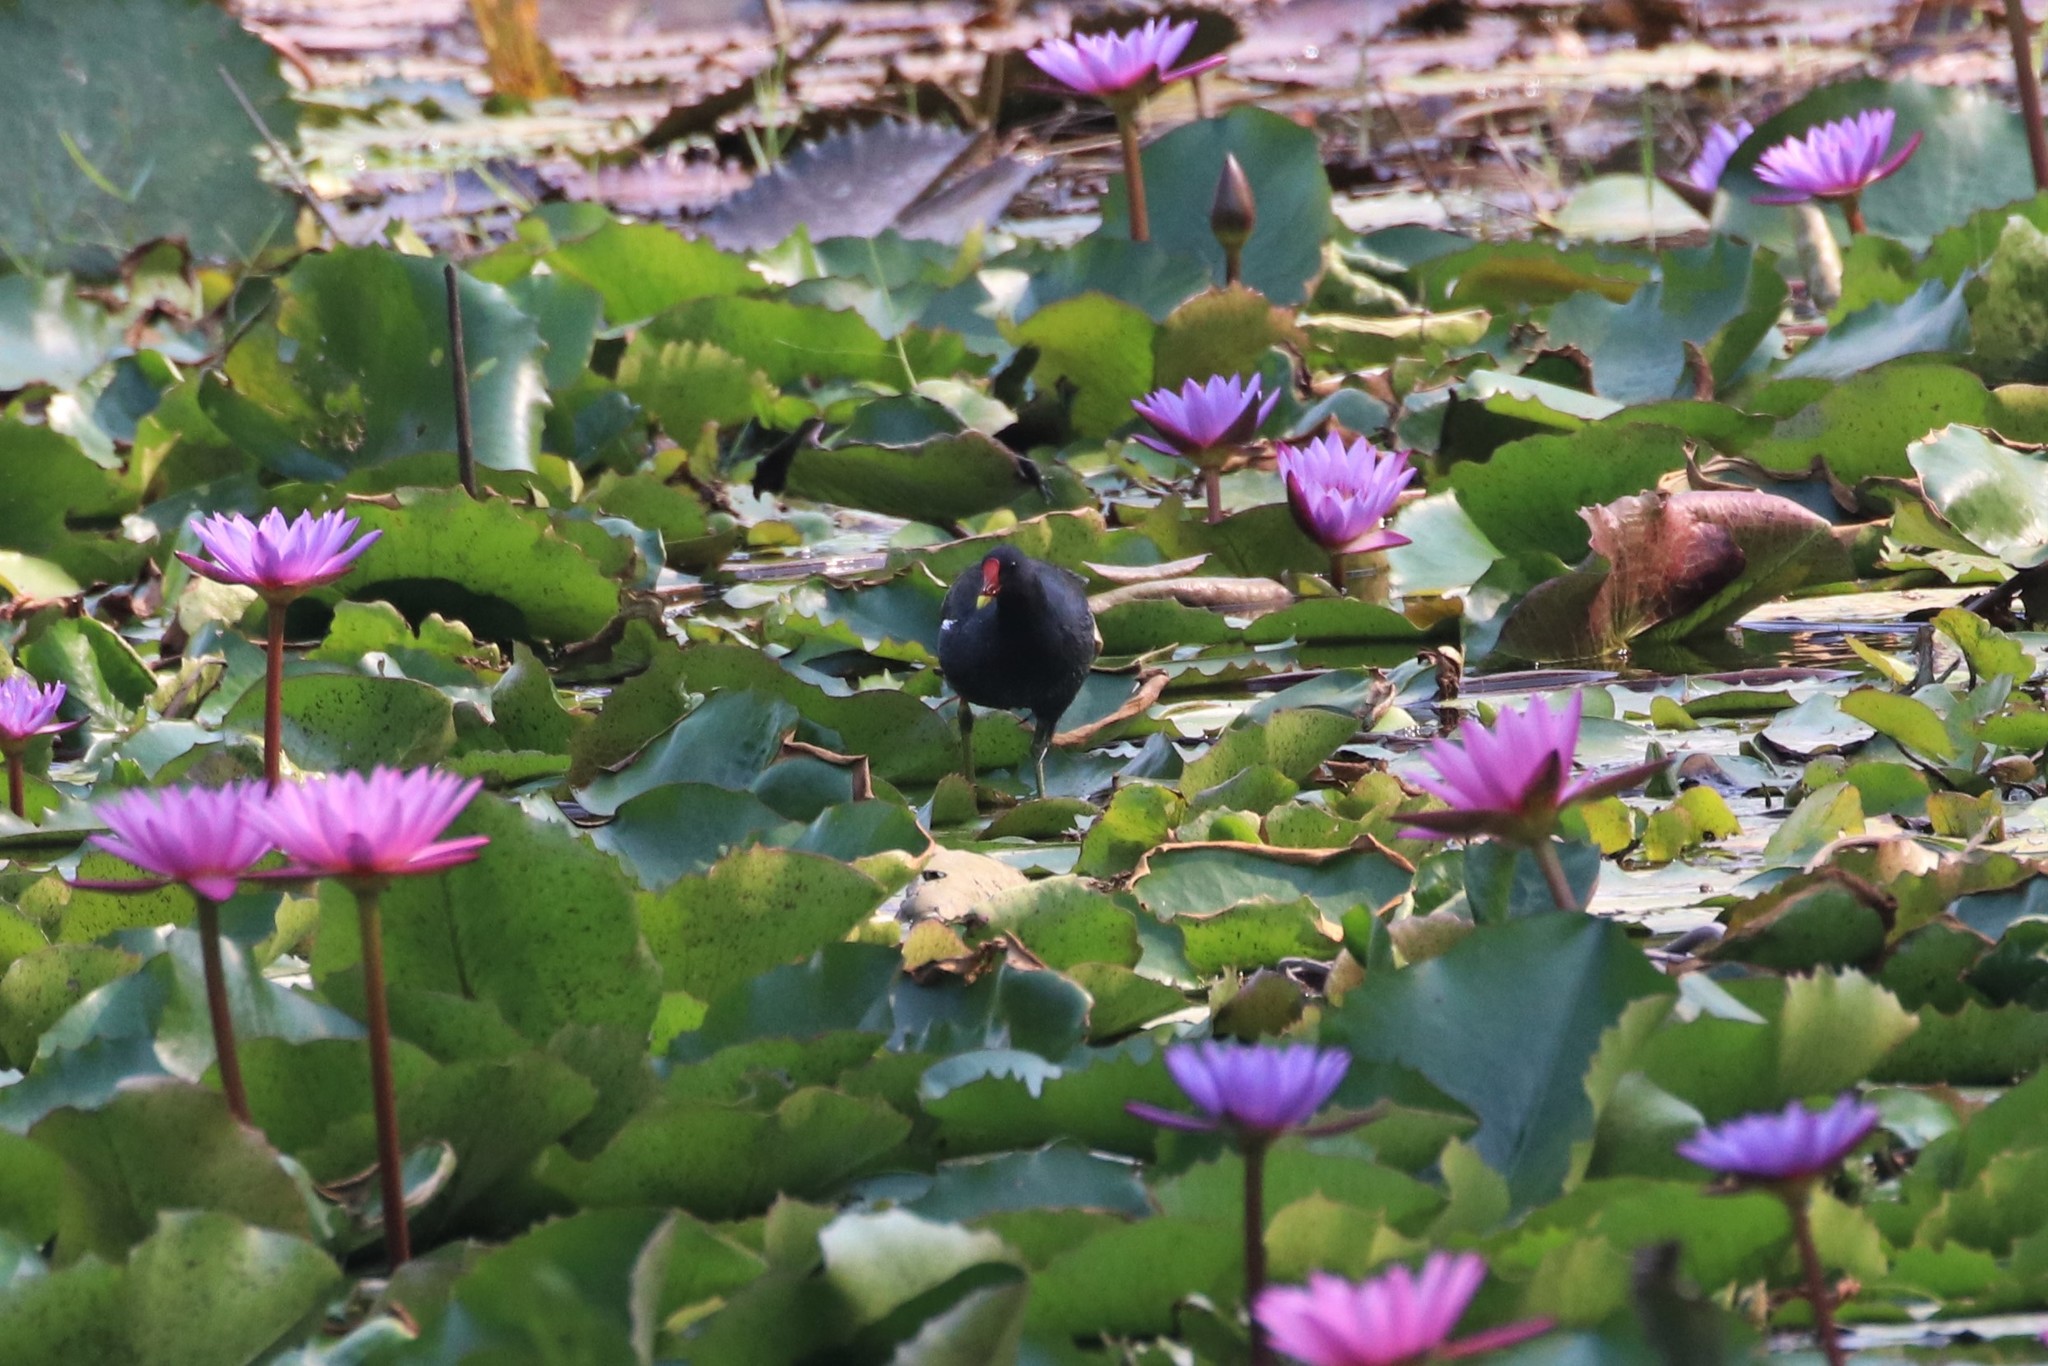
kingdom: Animalia
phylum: Chordata
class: Aves
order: Gruiformes
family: Rallidae
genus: Gallinula
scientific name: Gallinula chloropus
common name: Common moorhen
